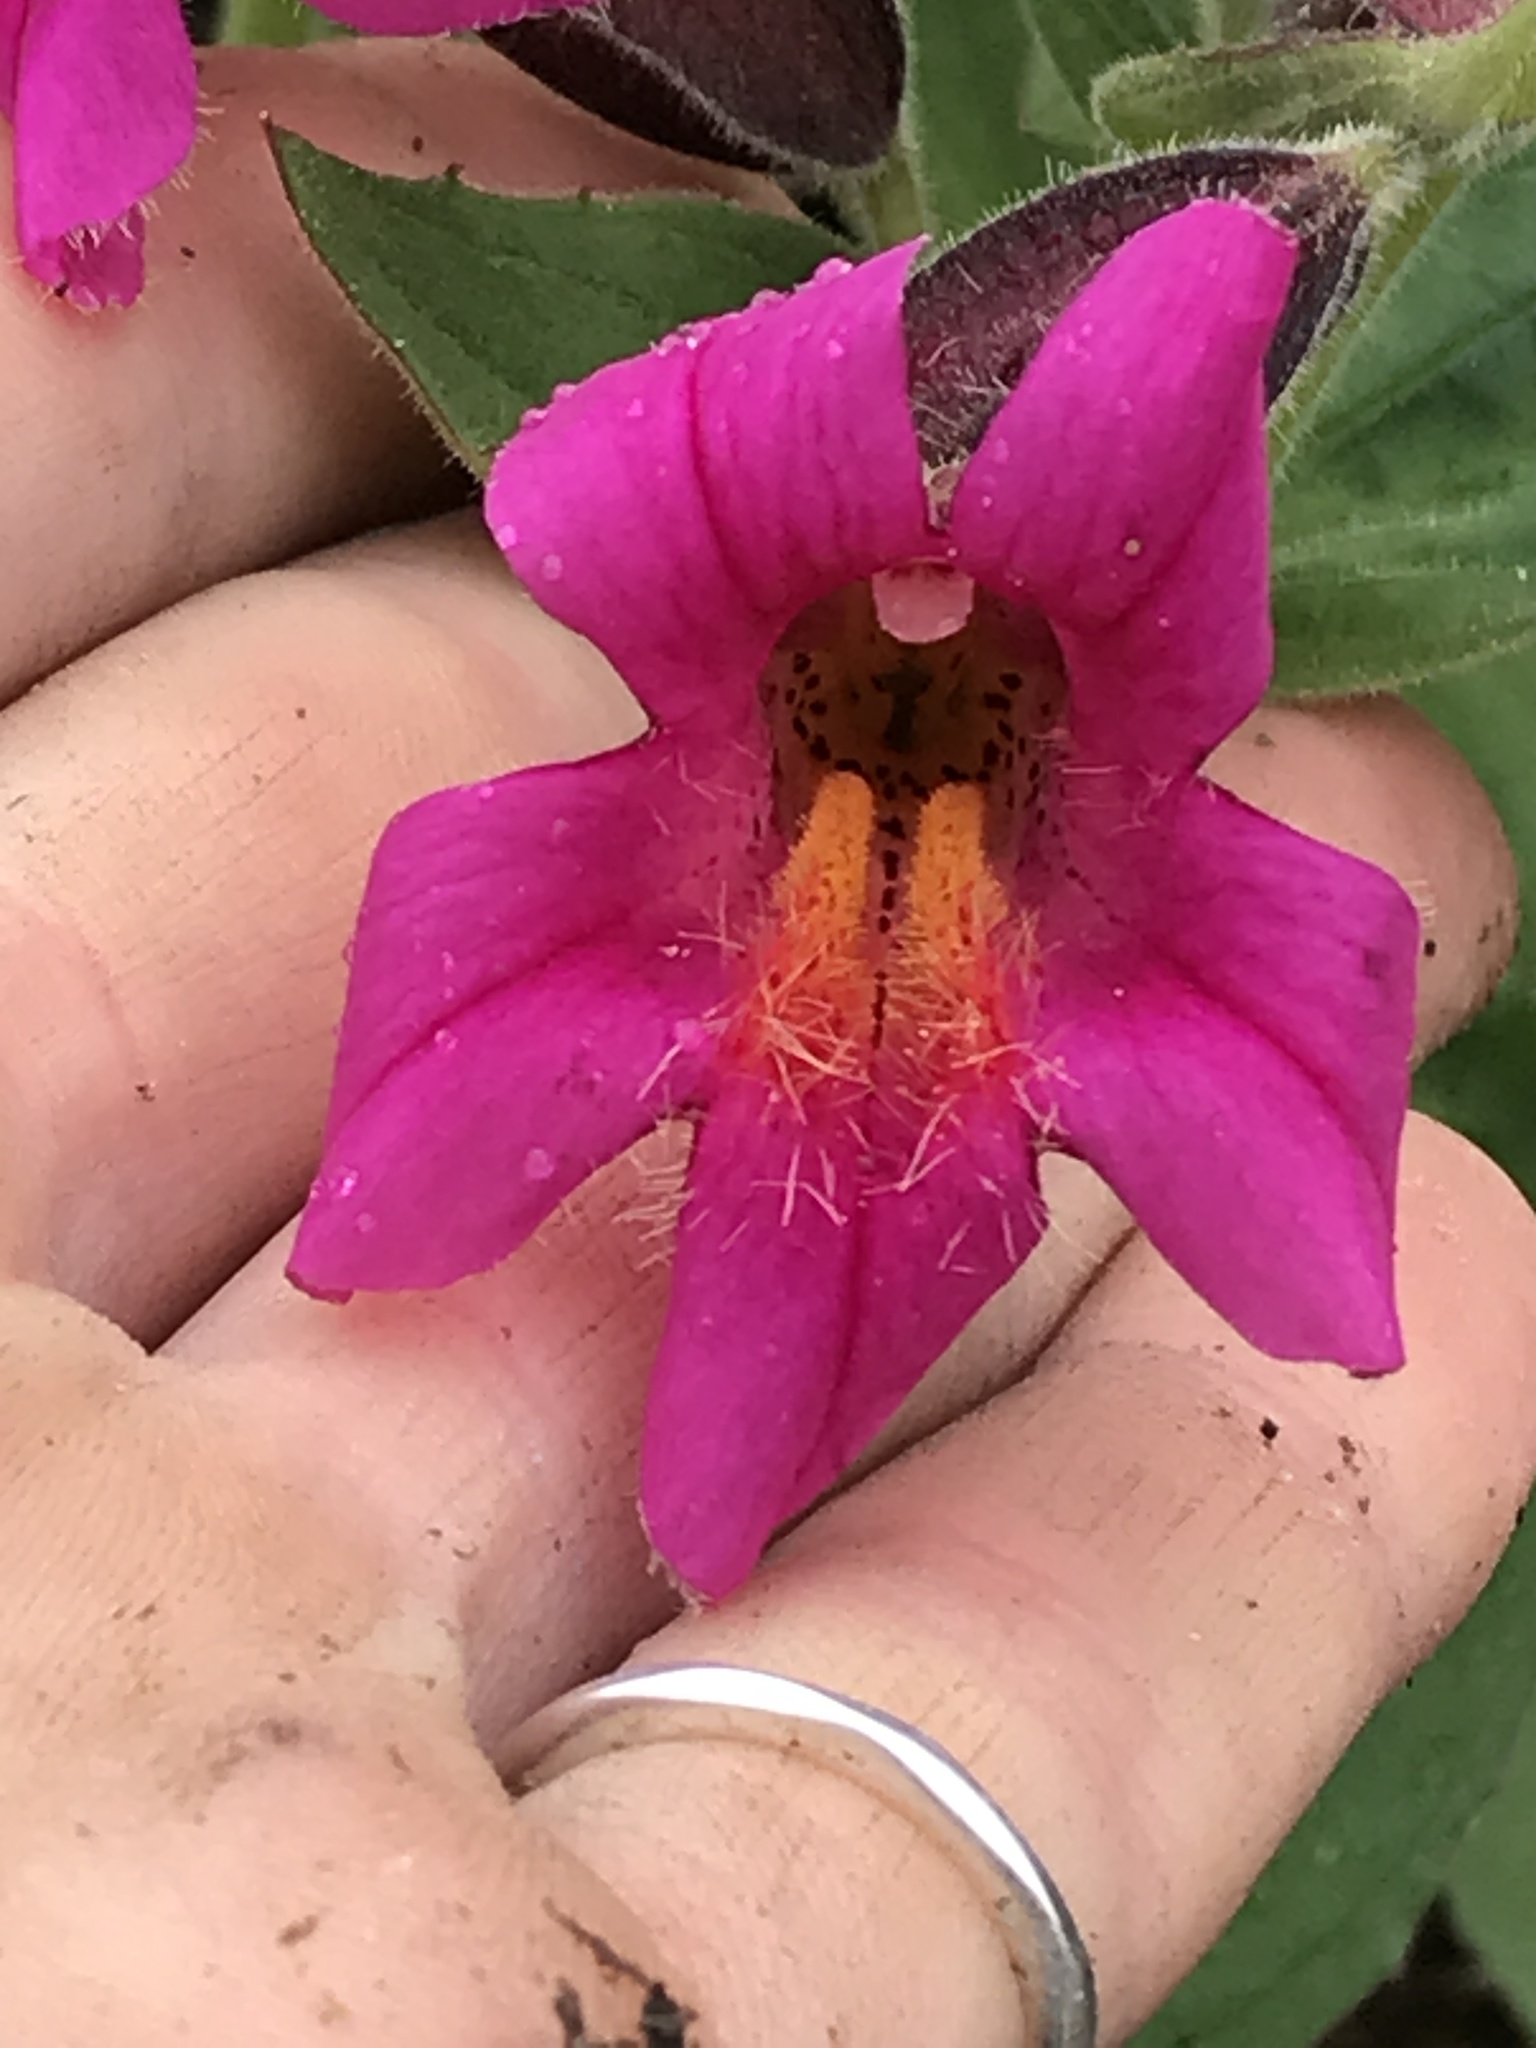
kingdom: Plantae
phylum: Tracheophyta
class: Magnoliopsida
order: Lamiales
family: Phrymaceae
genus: Erythranthe
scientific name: Erythranthe lewisii
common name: Lewis's monkey-flower
